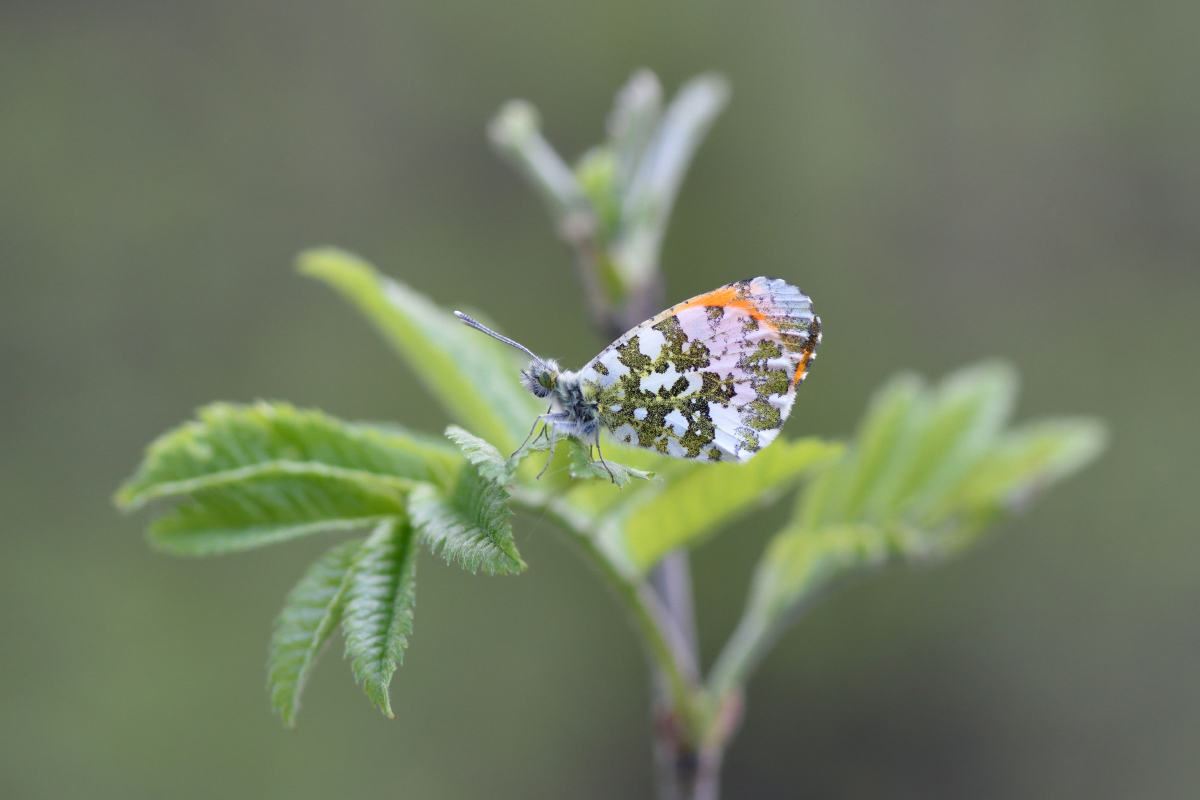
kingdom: Animalia
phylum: Arthropoda
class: Insecta
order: Lepidoptera
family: Pieridae
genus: Anthocharis
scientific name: Anthocharis cardamines
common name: Orange-tip
